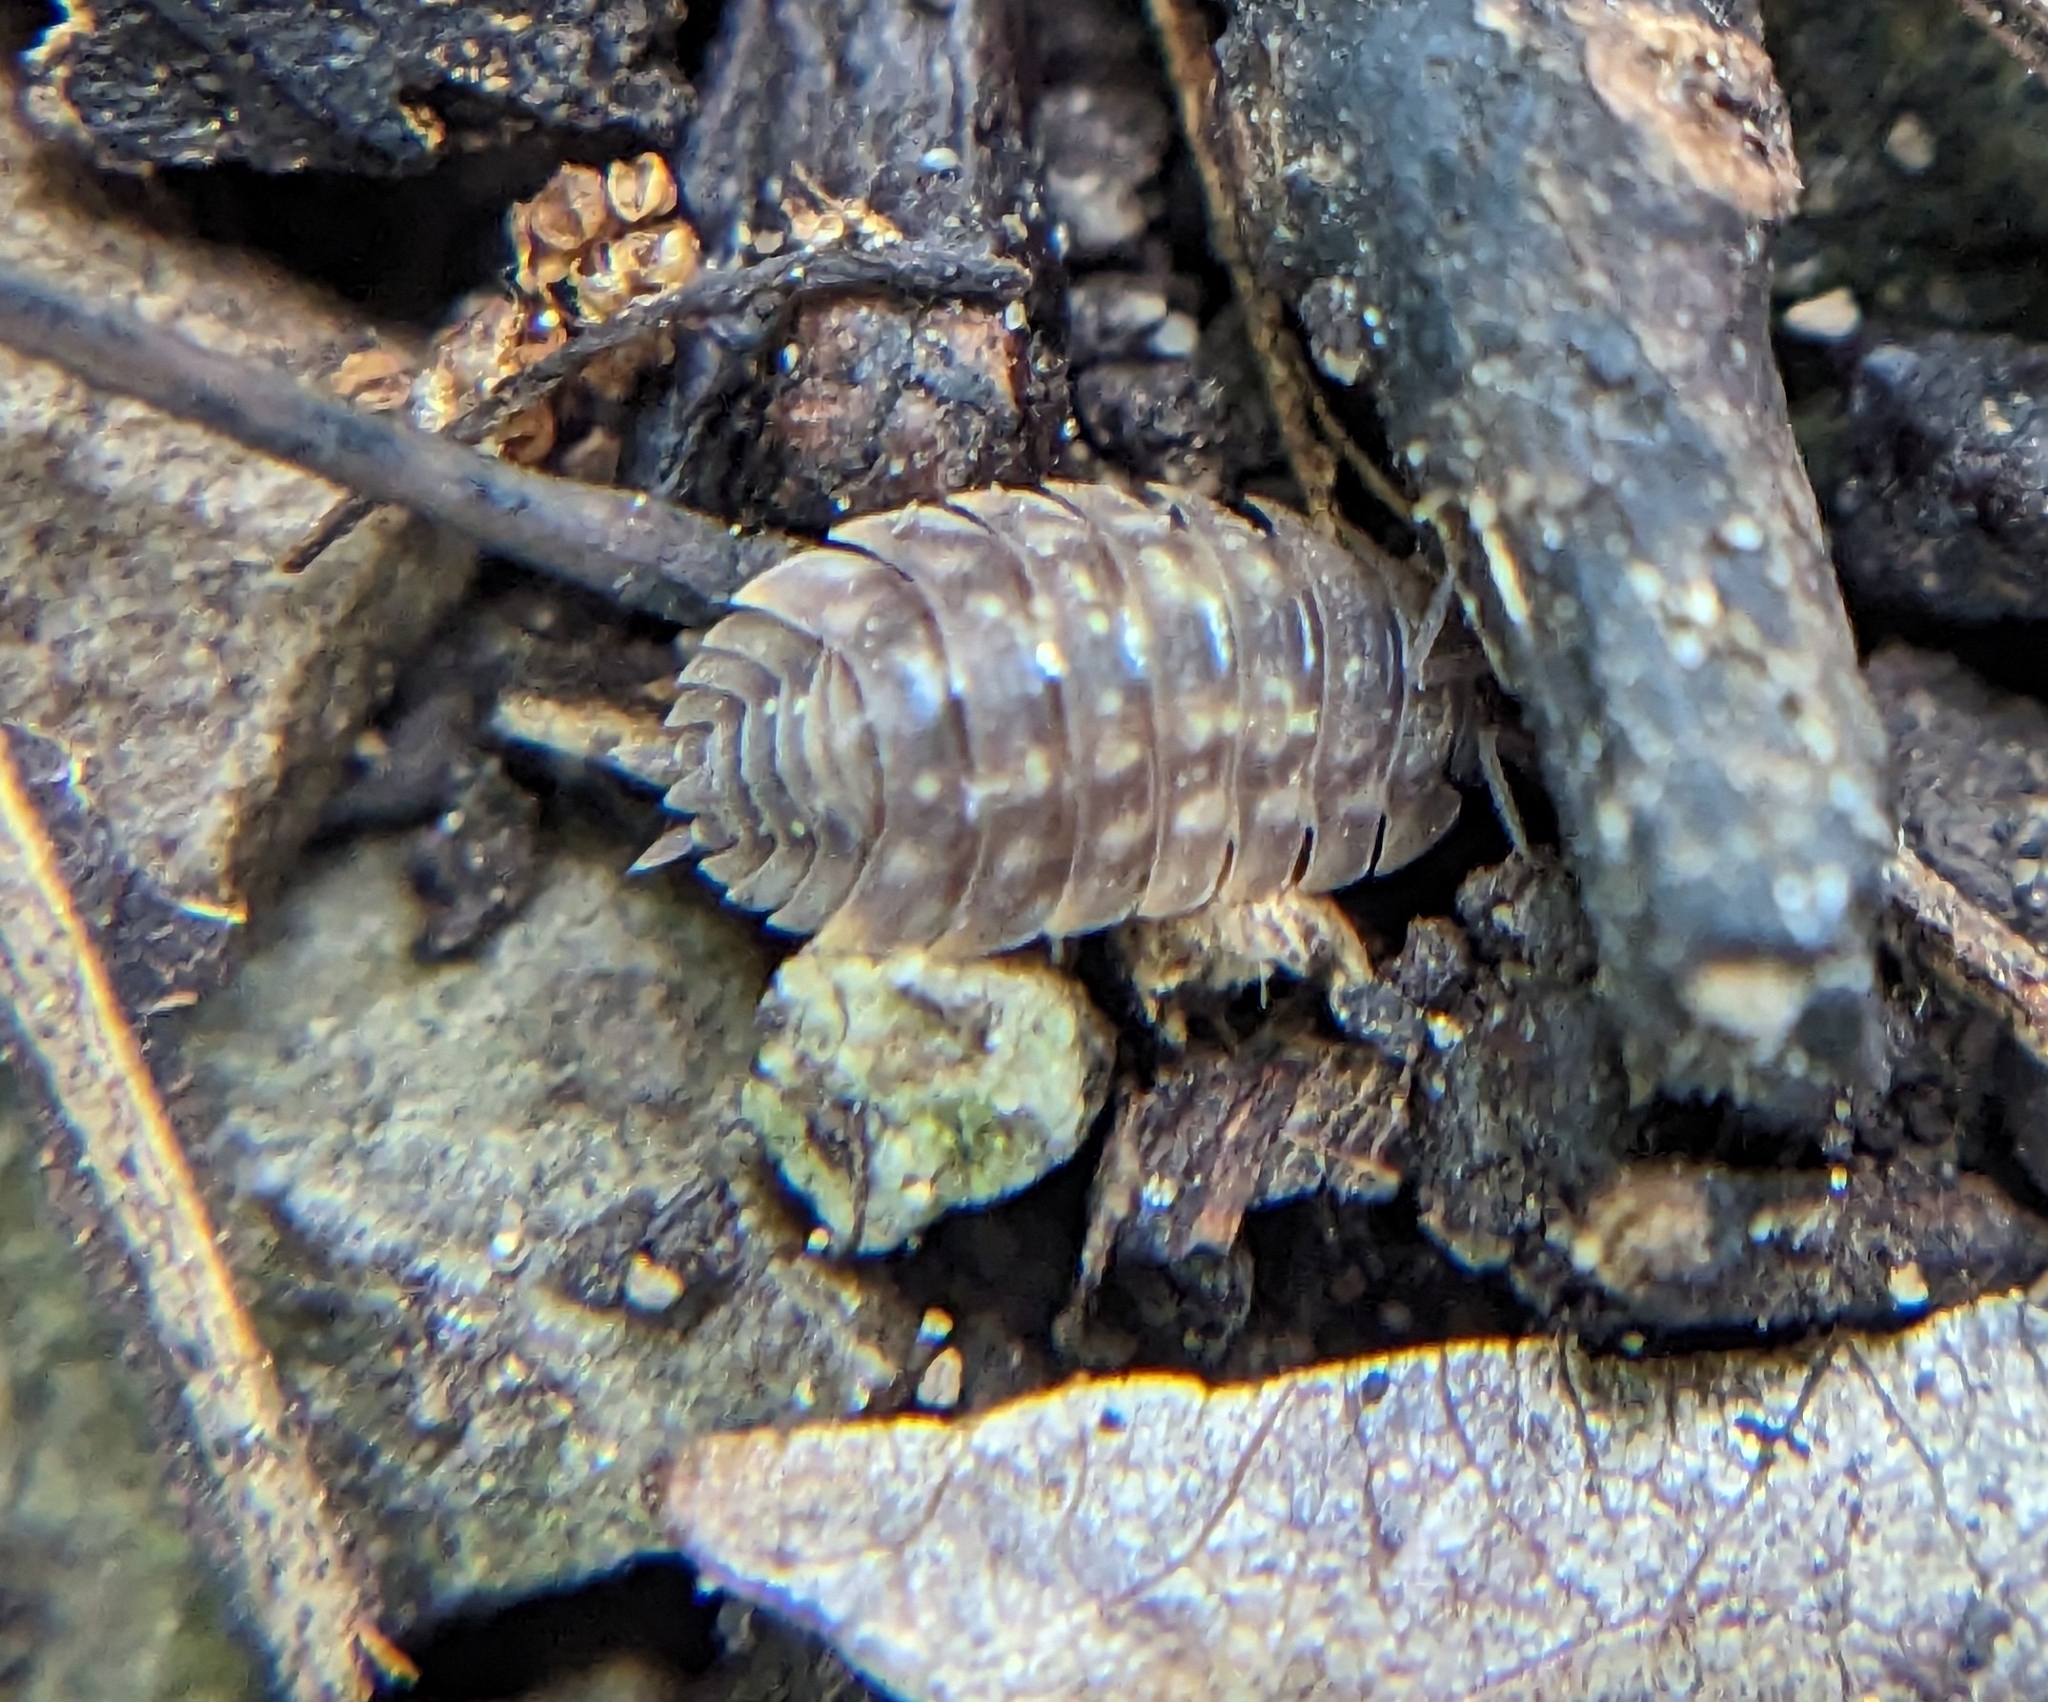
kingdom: Animalia
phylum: Arthropoda
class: Malacostraca
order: Isopoda
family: Oniscidae
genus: Oniscus
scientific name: Oniscus asellus
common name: Common shiny woodlouse
